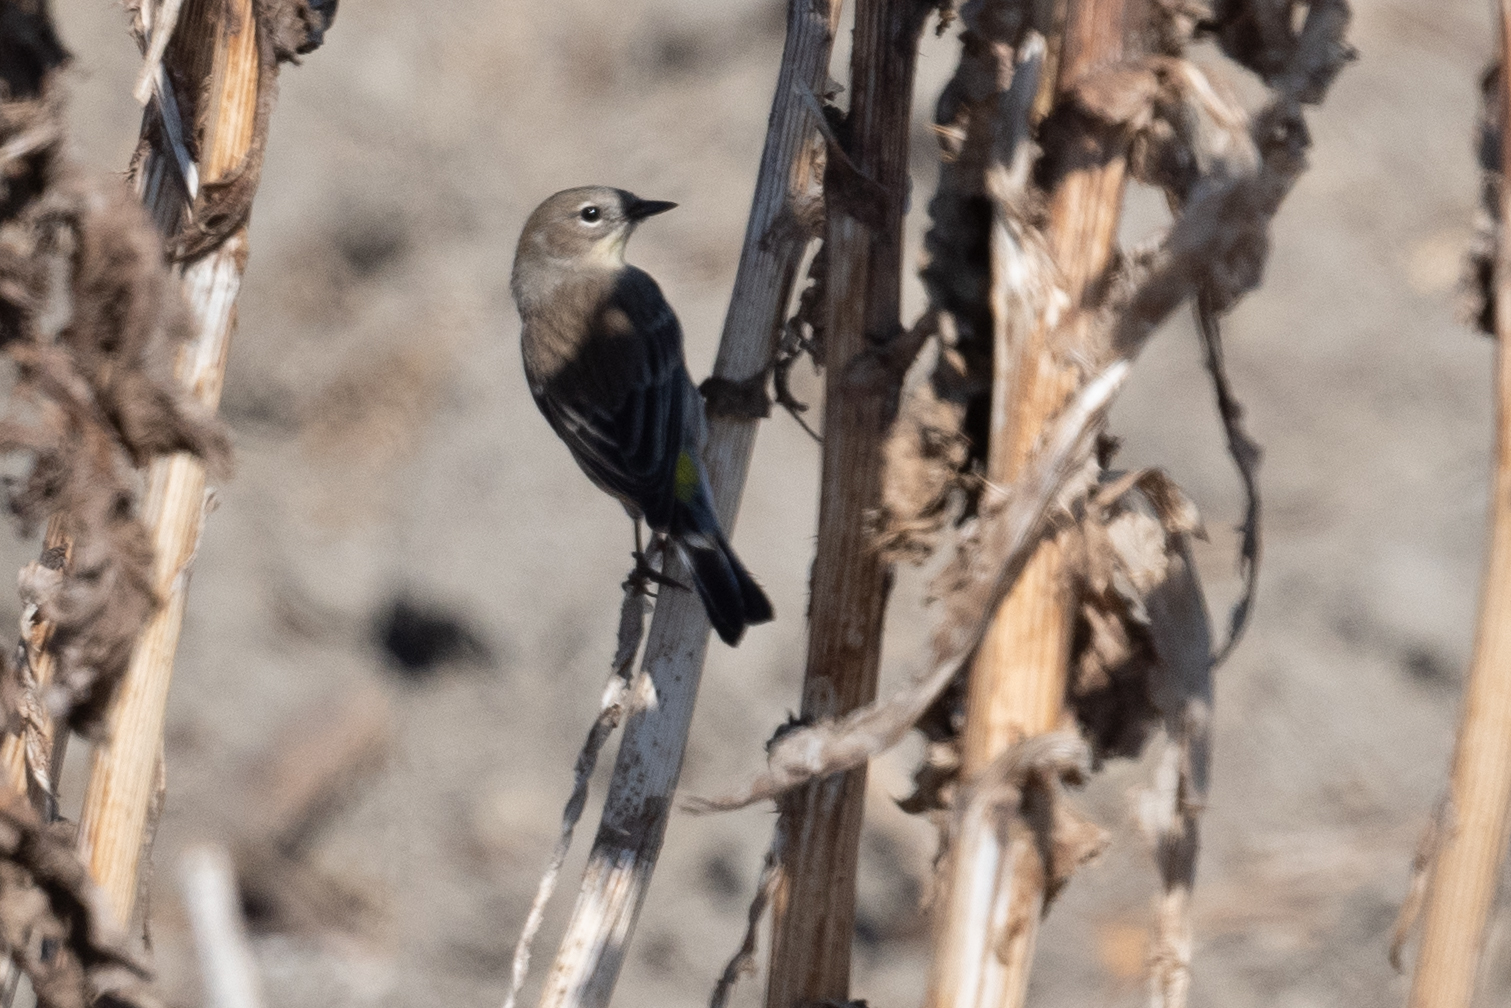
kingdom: Animalia
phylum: Chordata
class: Aves
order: Passeriformes
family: Parulidae
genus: Setophaga
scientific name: Setophaga coronata
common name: Myrtle warbler
